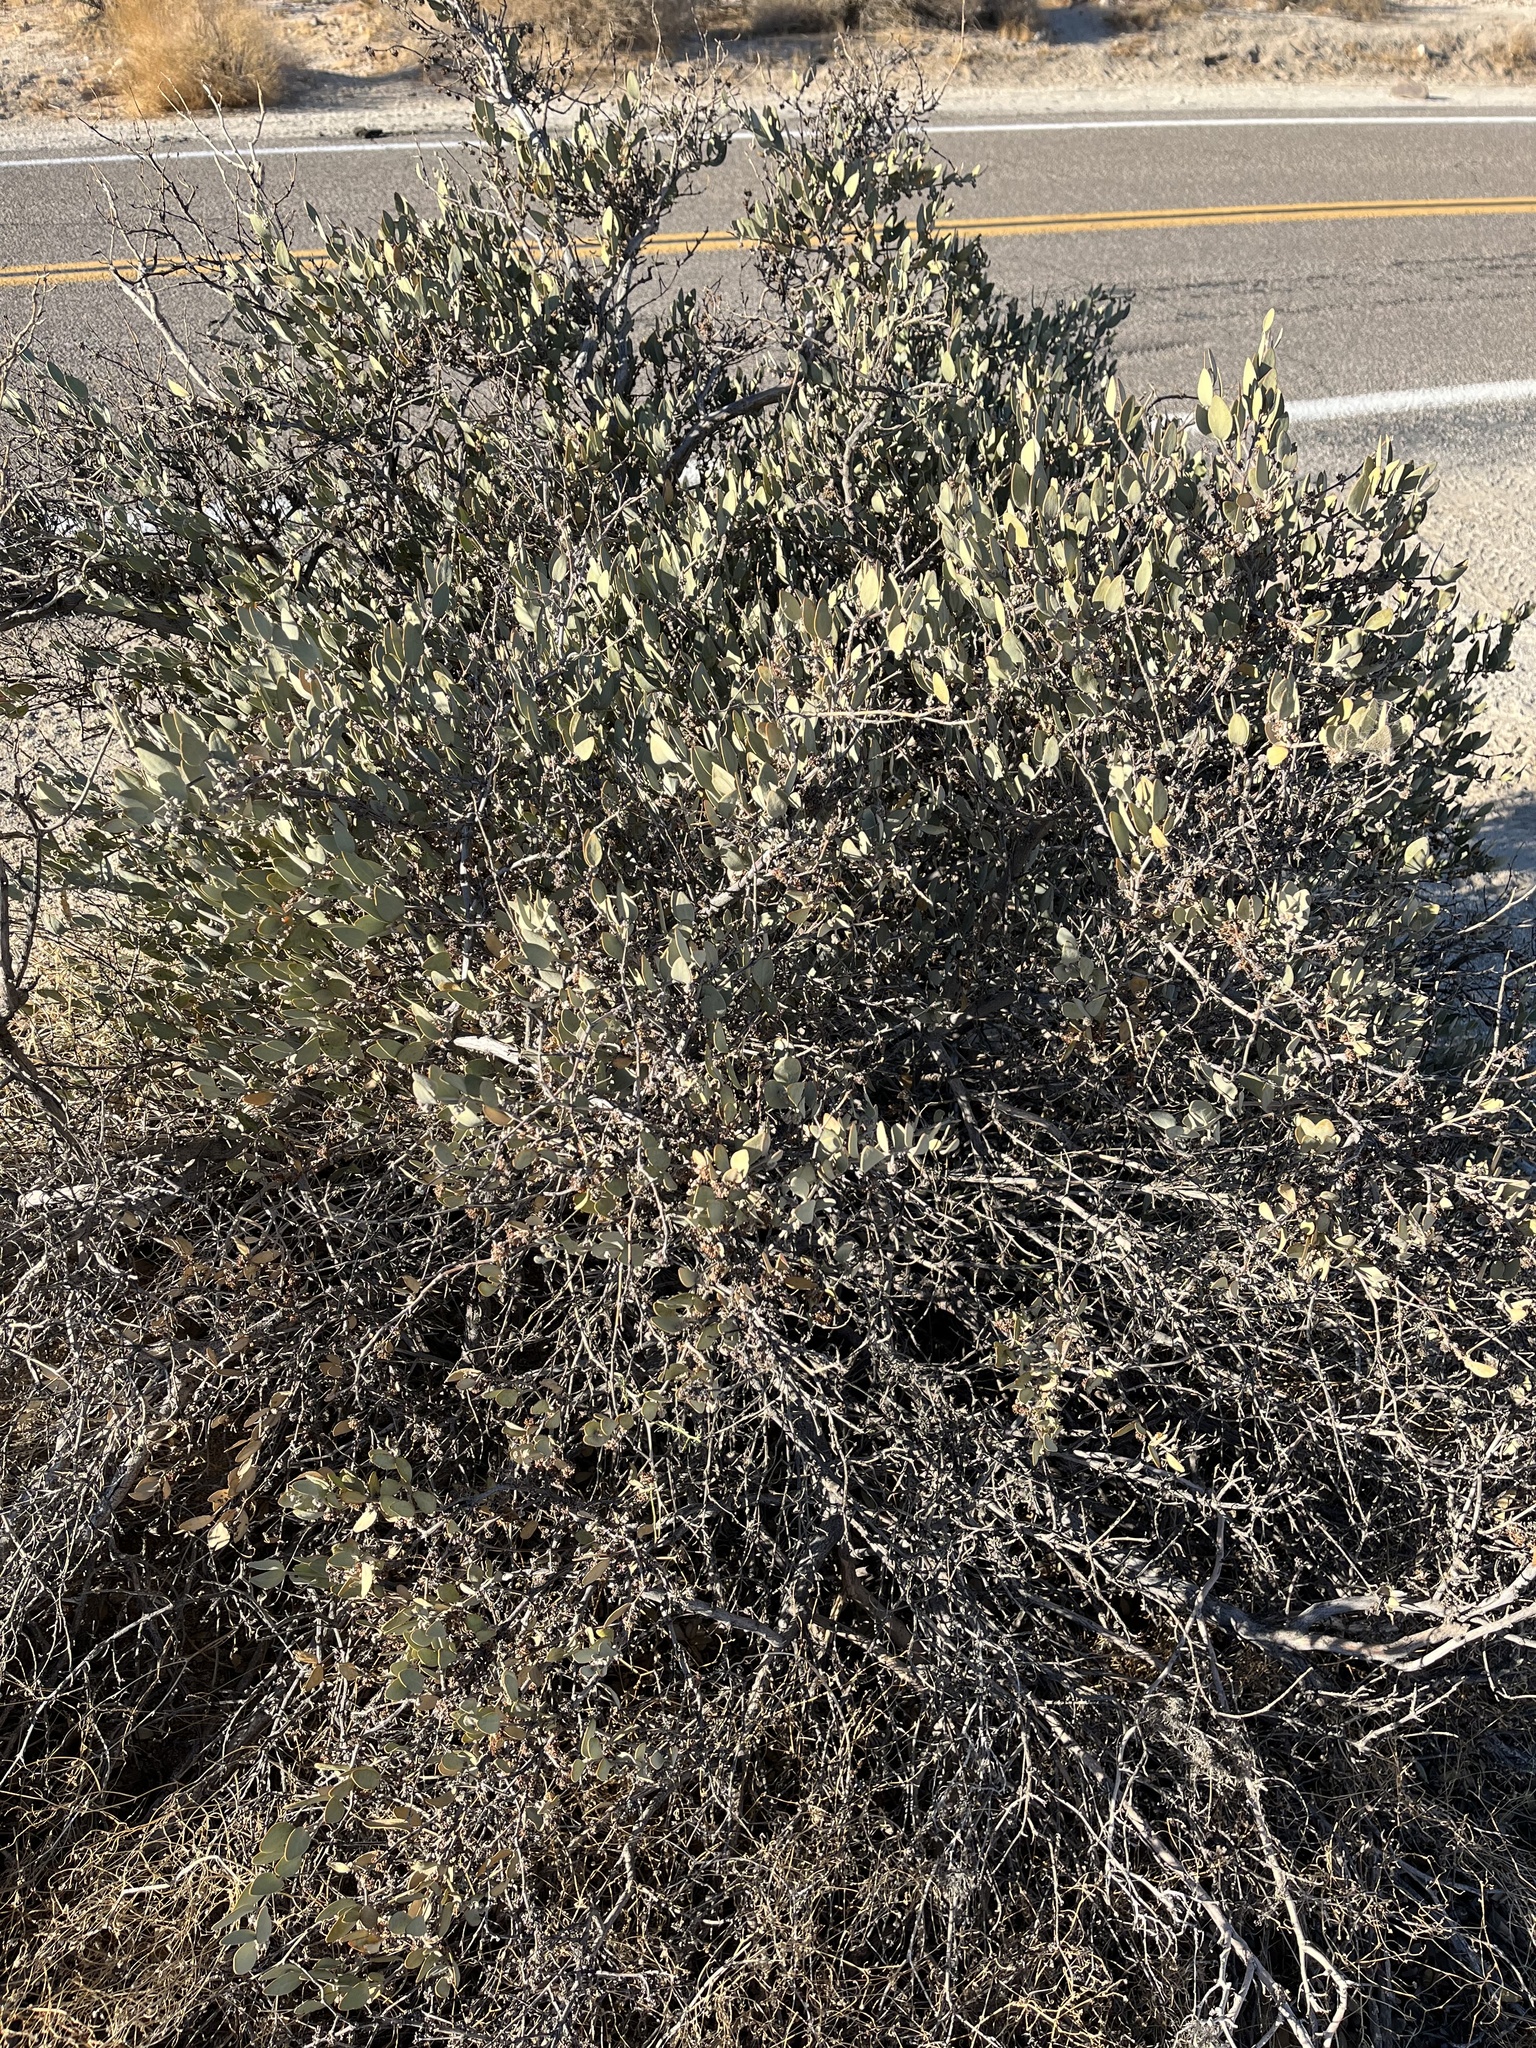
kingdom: Plantae
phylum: Tracheophyta
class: Magnoliopsida
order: Caryophyllales
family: Simmondsiaceae
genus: Simmondsia
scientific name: Simmondsia chinensis
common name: Jojoba
